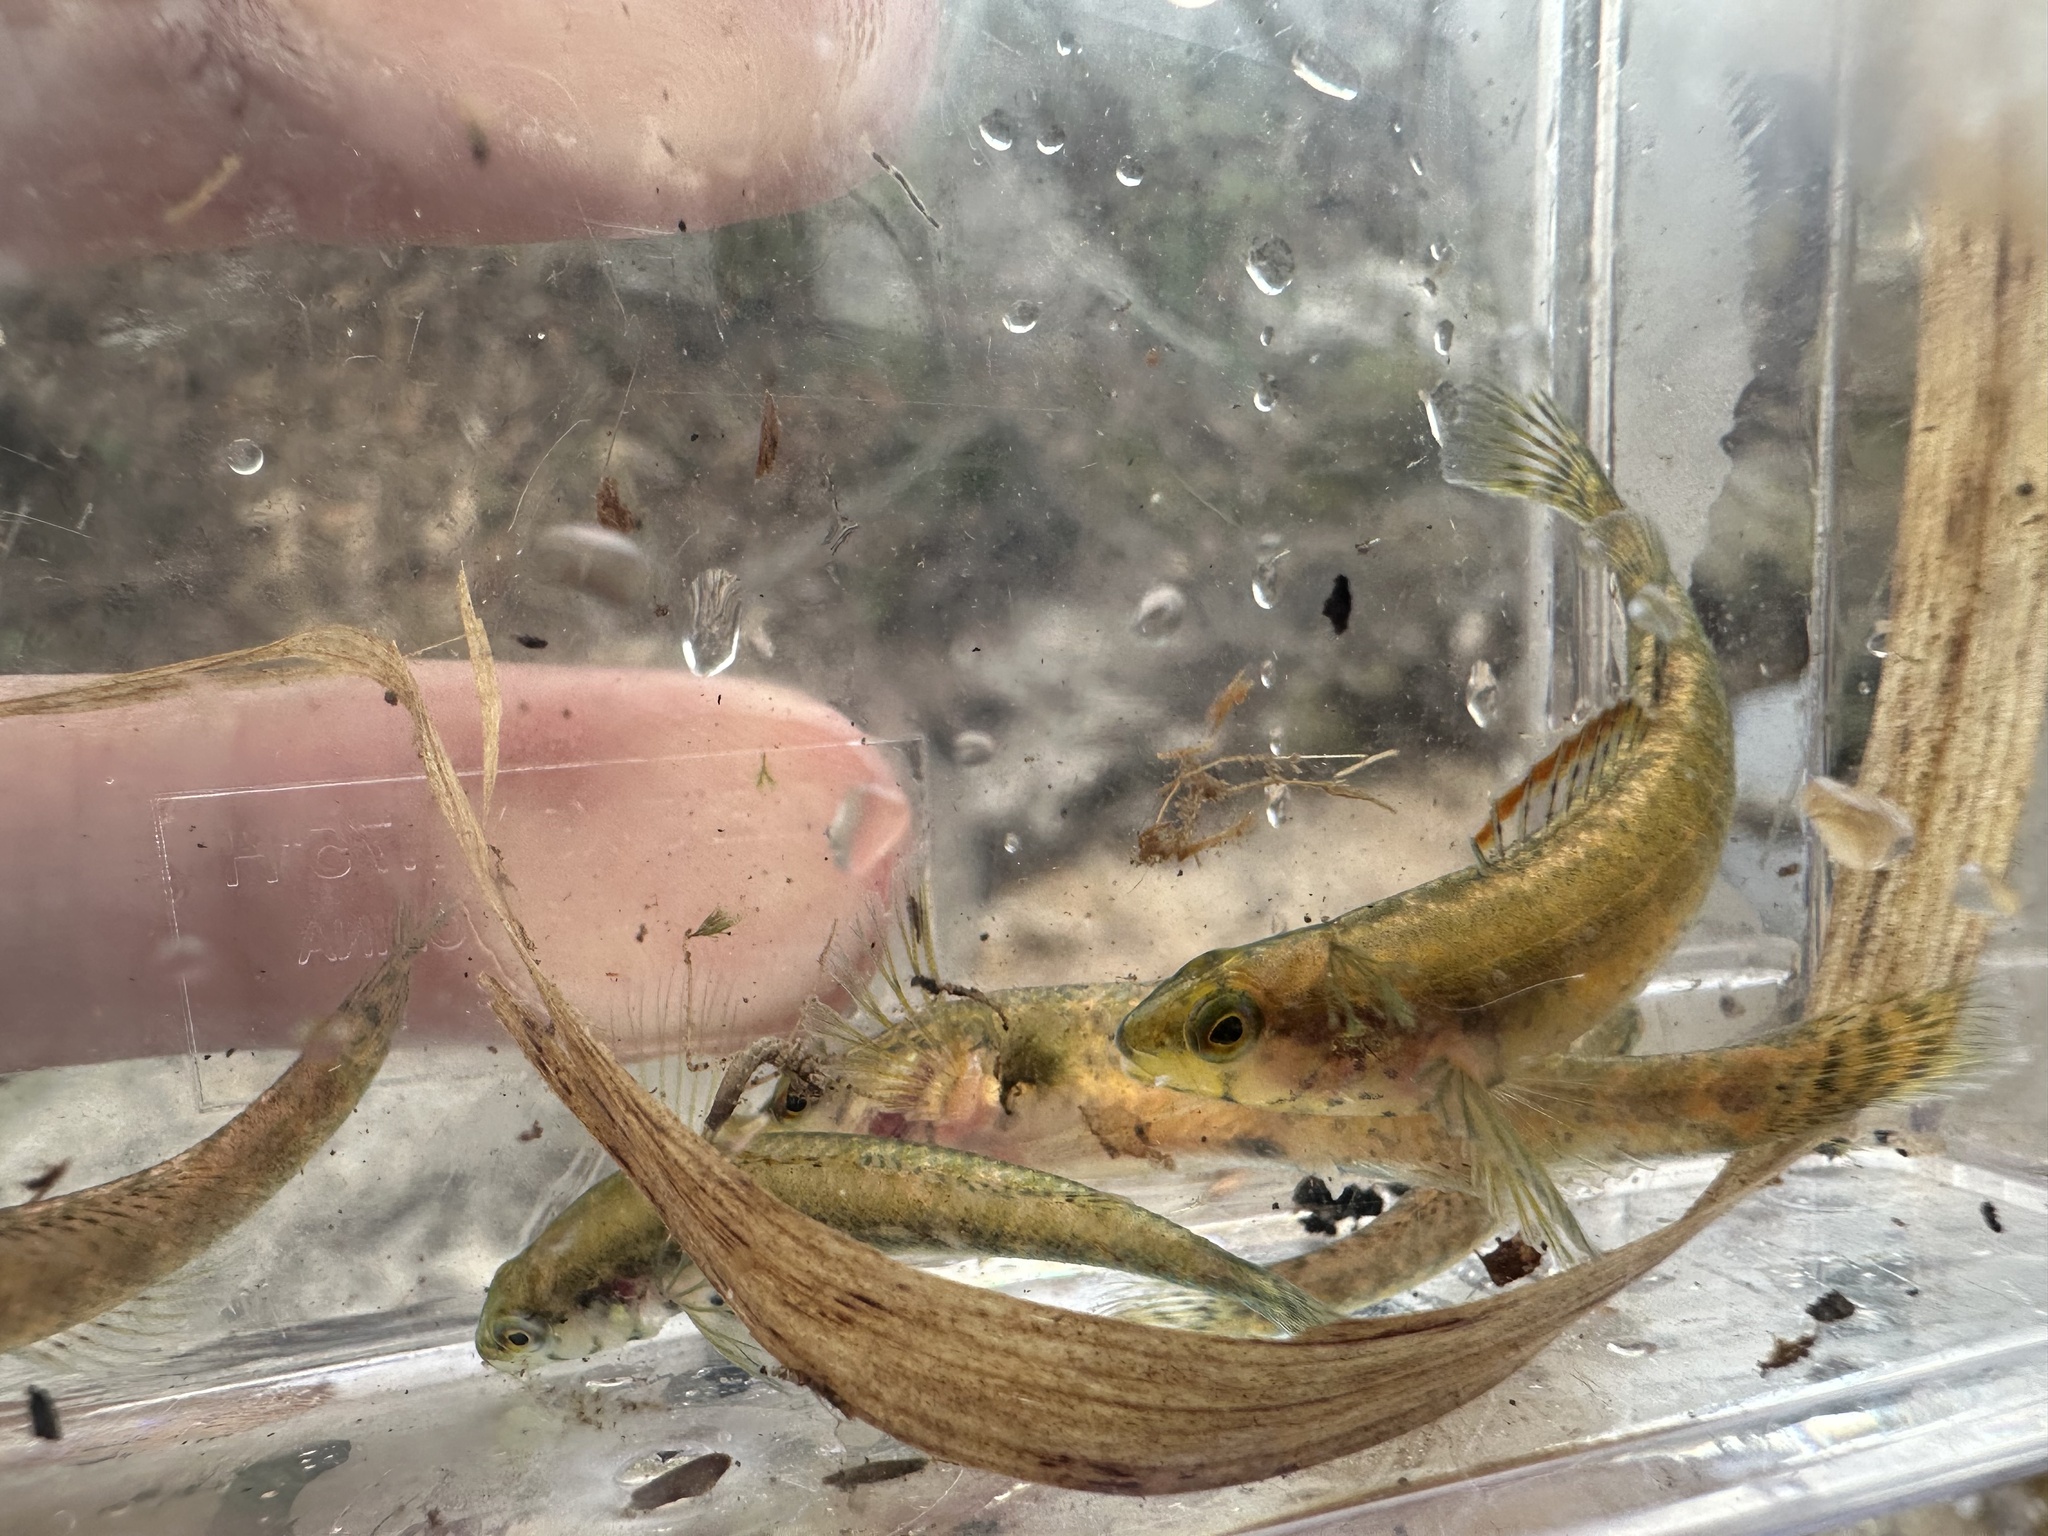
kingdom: Animalia
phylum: Chordata
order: Perciformes
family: Percidae
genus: Etheostoma
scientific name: Etheostoma mariae
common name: Pinewoods darter
